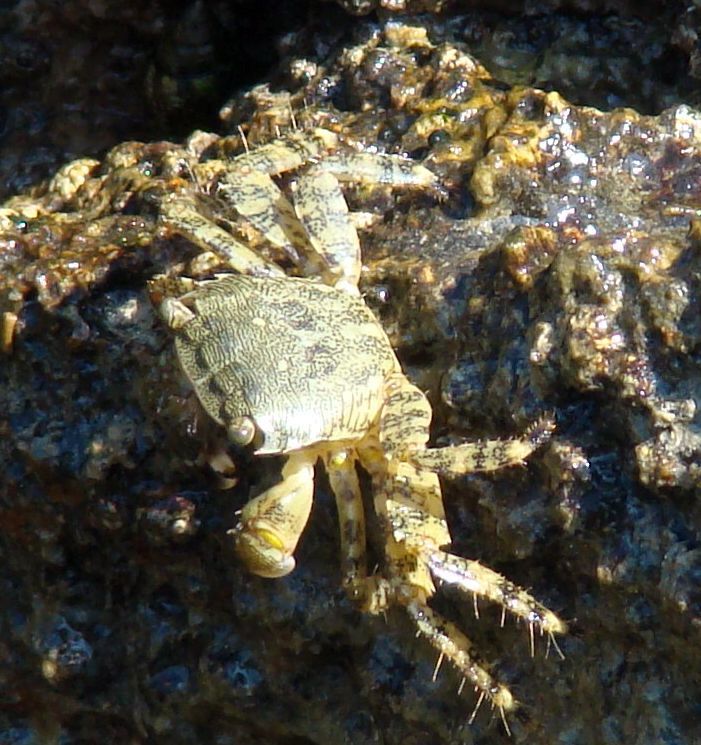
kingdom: Animalia
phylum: Arthropoda
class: Malacostraca
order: Decapoda
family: Grapsidae
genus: Pachygrapsus
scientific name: Pachygrapsus marmoratus
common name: Marbled rock crab
